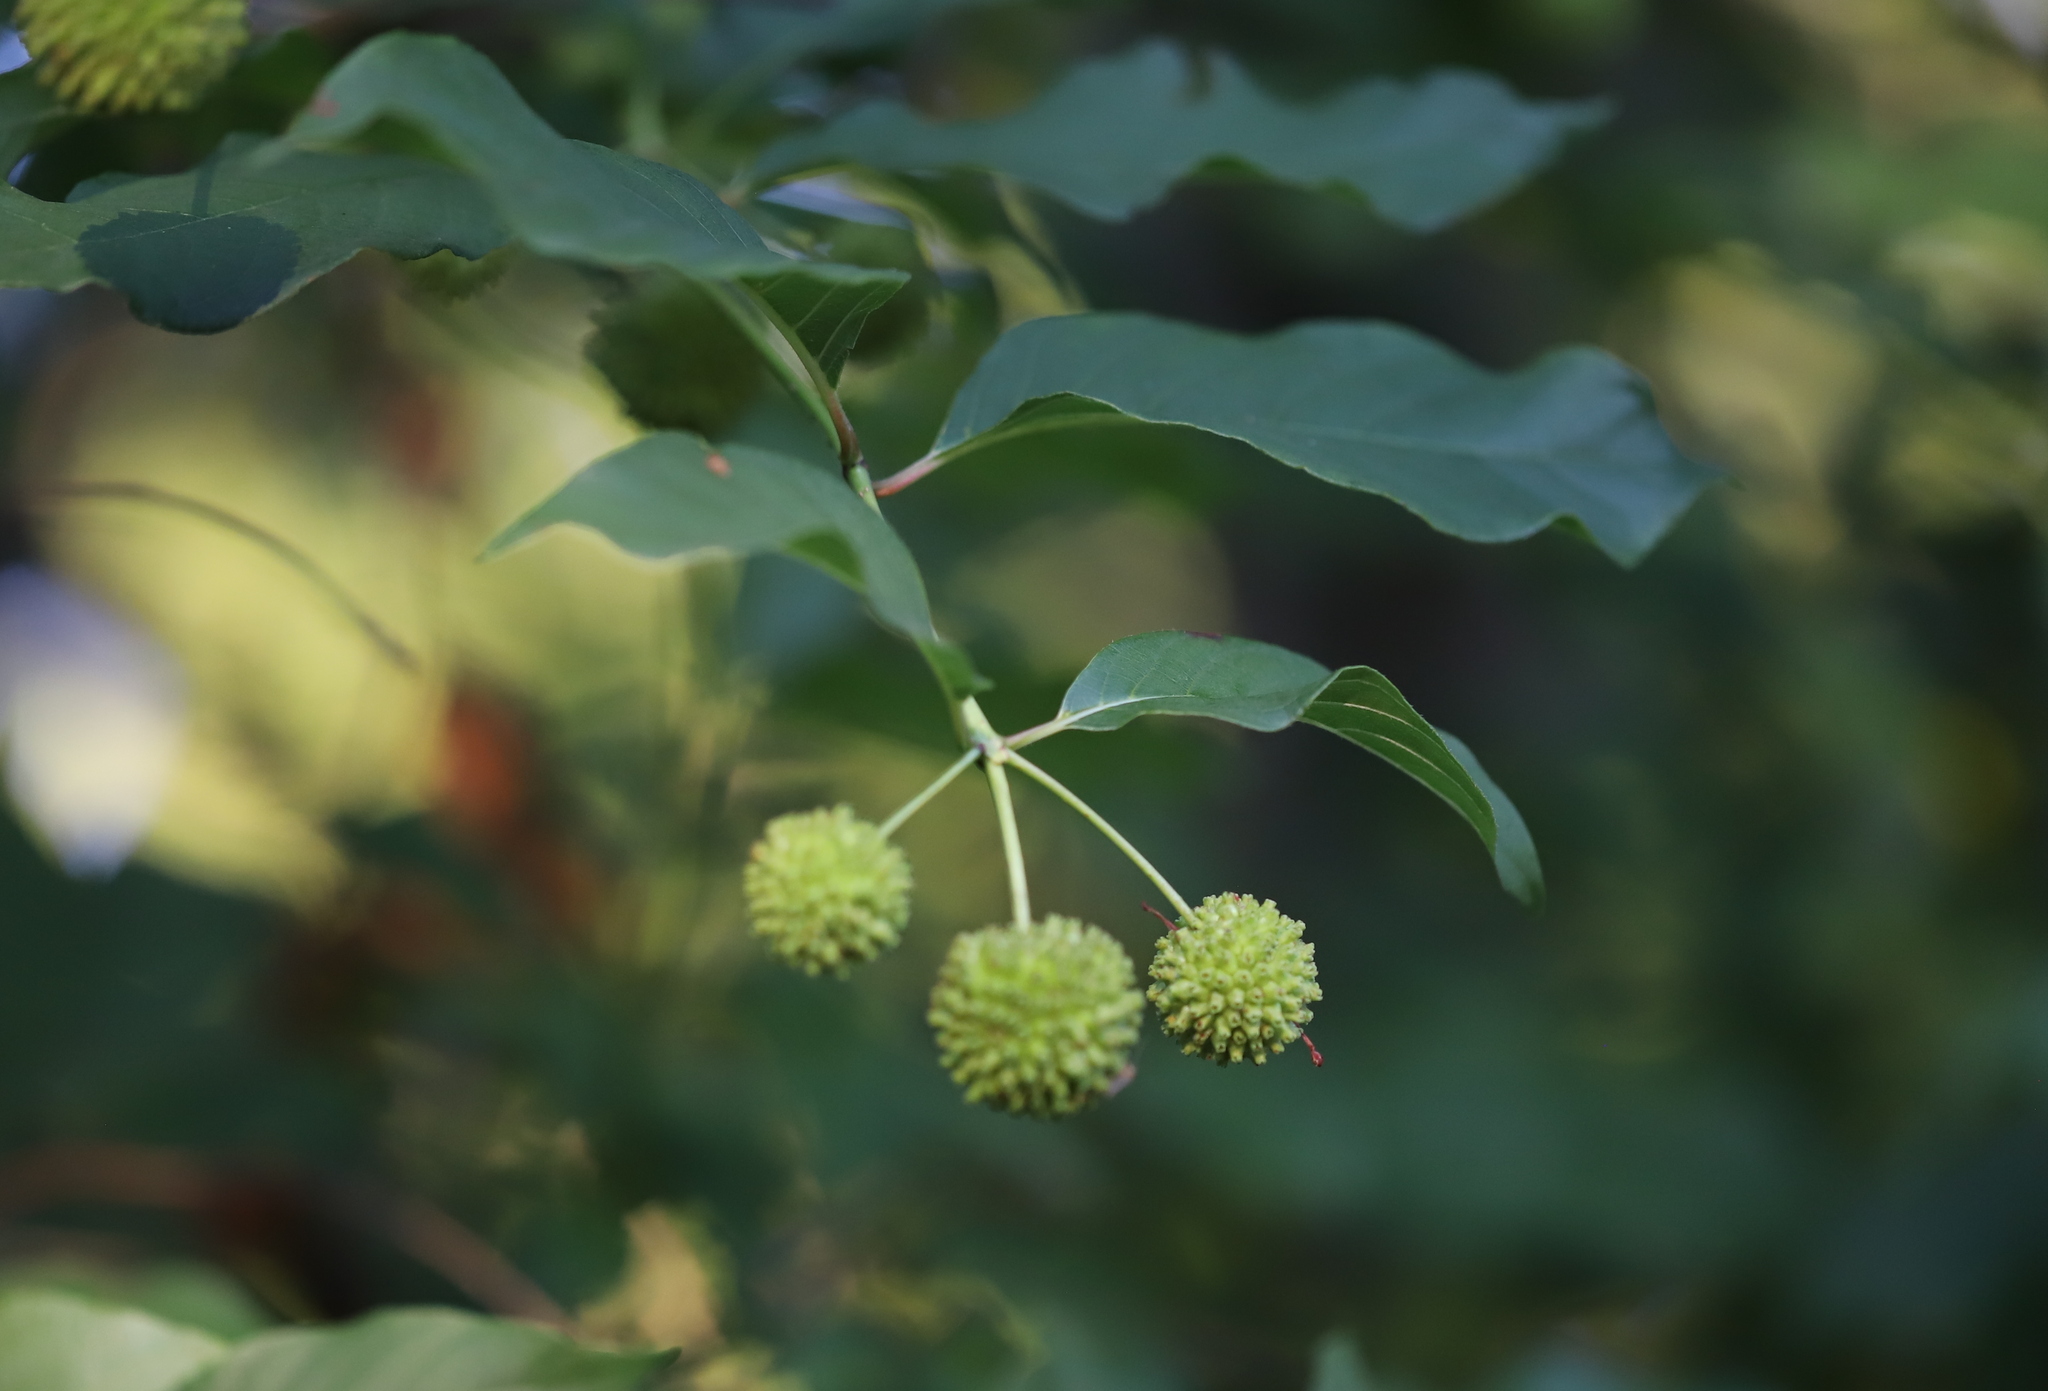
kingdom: Plantae
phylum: Tracheophyta
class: Magnoliopsida
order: Gentianales
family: Rubiaceae
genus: Cephalanthus
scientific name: Cephalanthus occidentalis
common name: Button-willow
